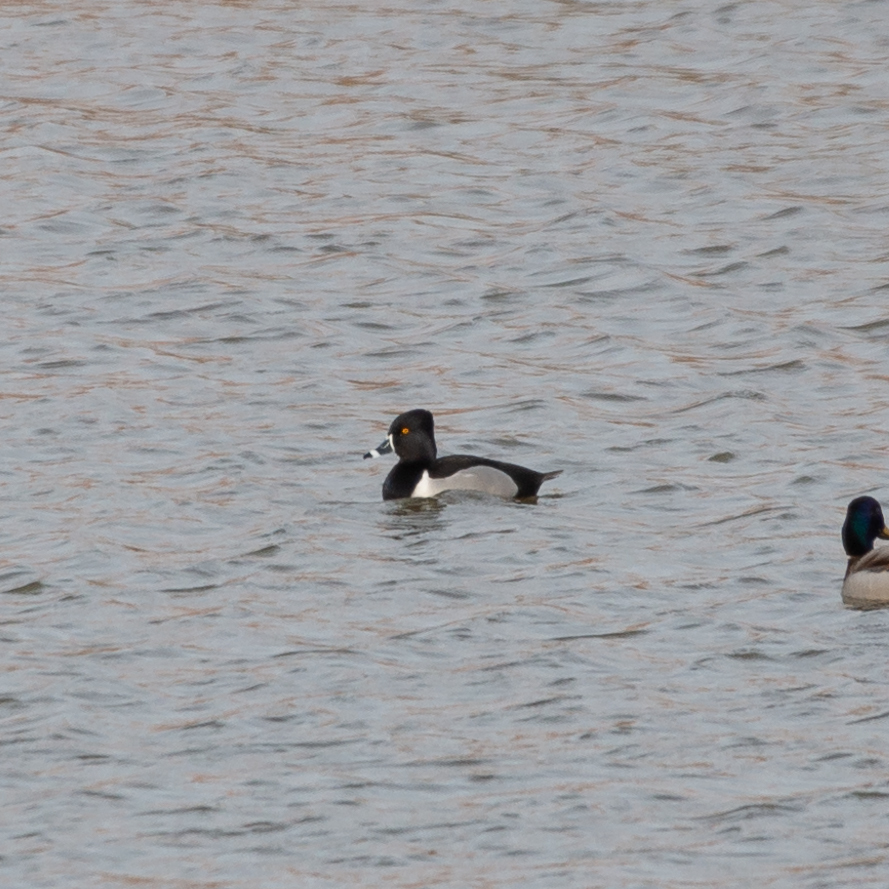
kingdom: Animalia
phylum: Chordata
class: Aves
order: Anseriformes
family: Anatidae
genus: Aythya
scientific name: Aythya collaris
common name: Ring-necked duck
